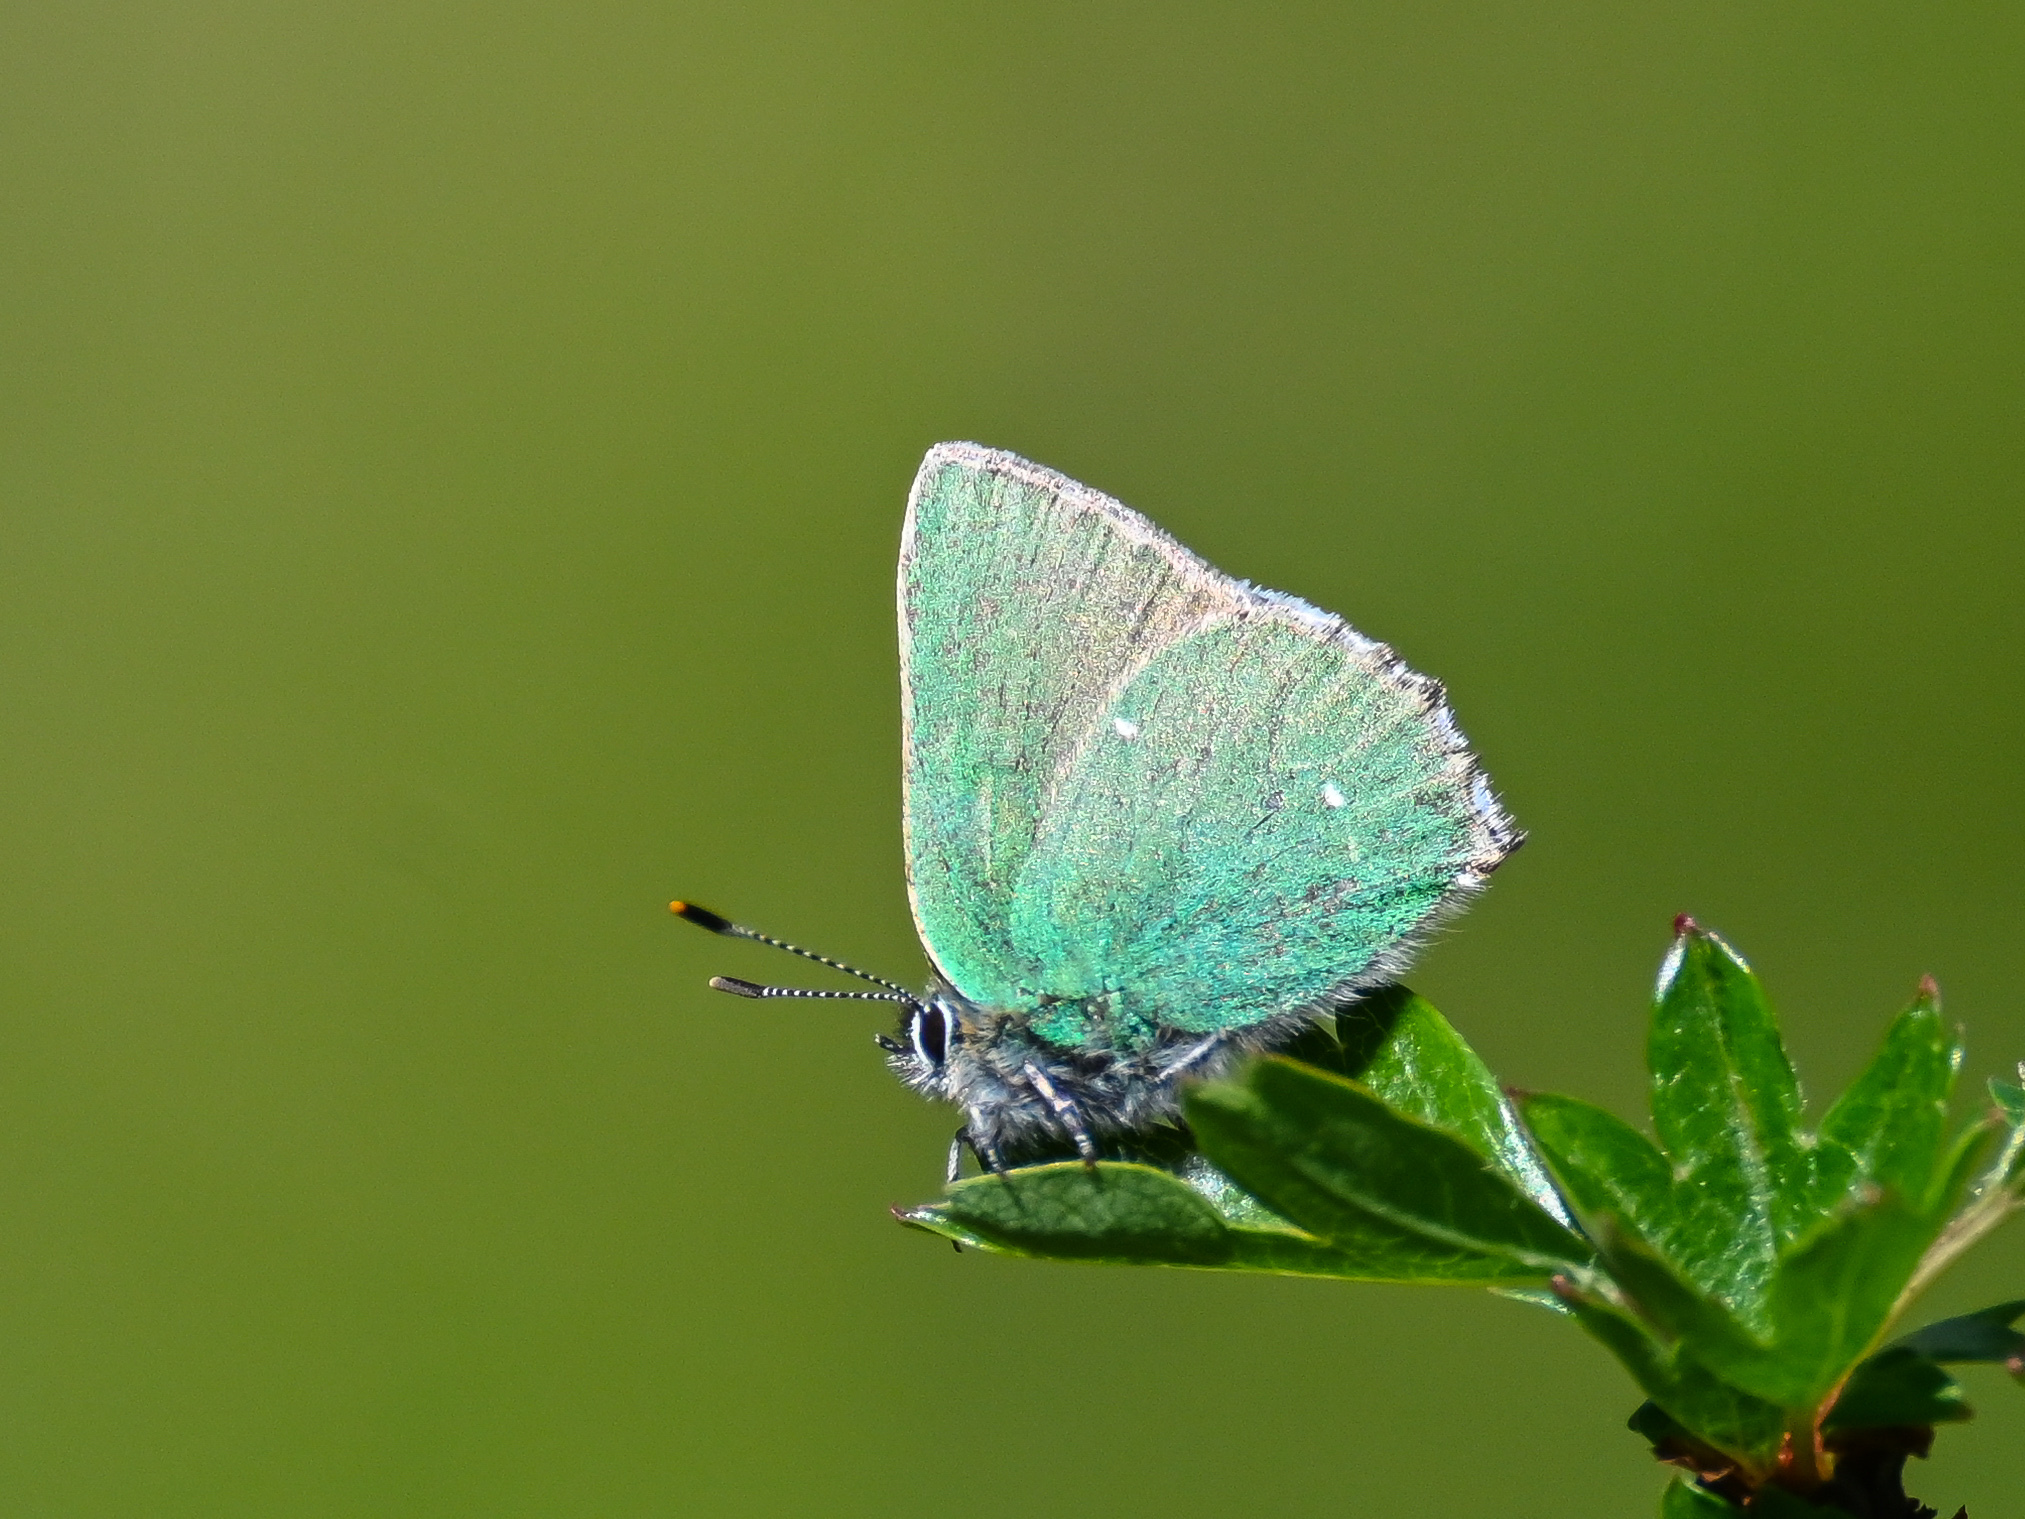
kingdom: Animalia
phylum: Arthropoda
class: Insecta
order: Lepidoptera
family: Lycaenidae
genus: Callophrys
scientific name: Callophrys rubi
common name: Green hairstreak
